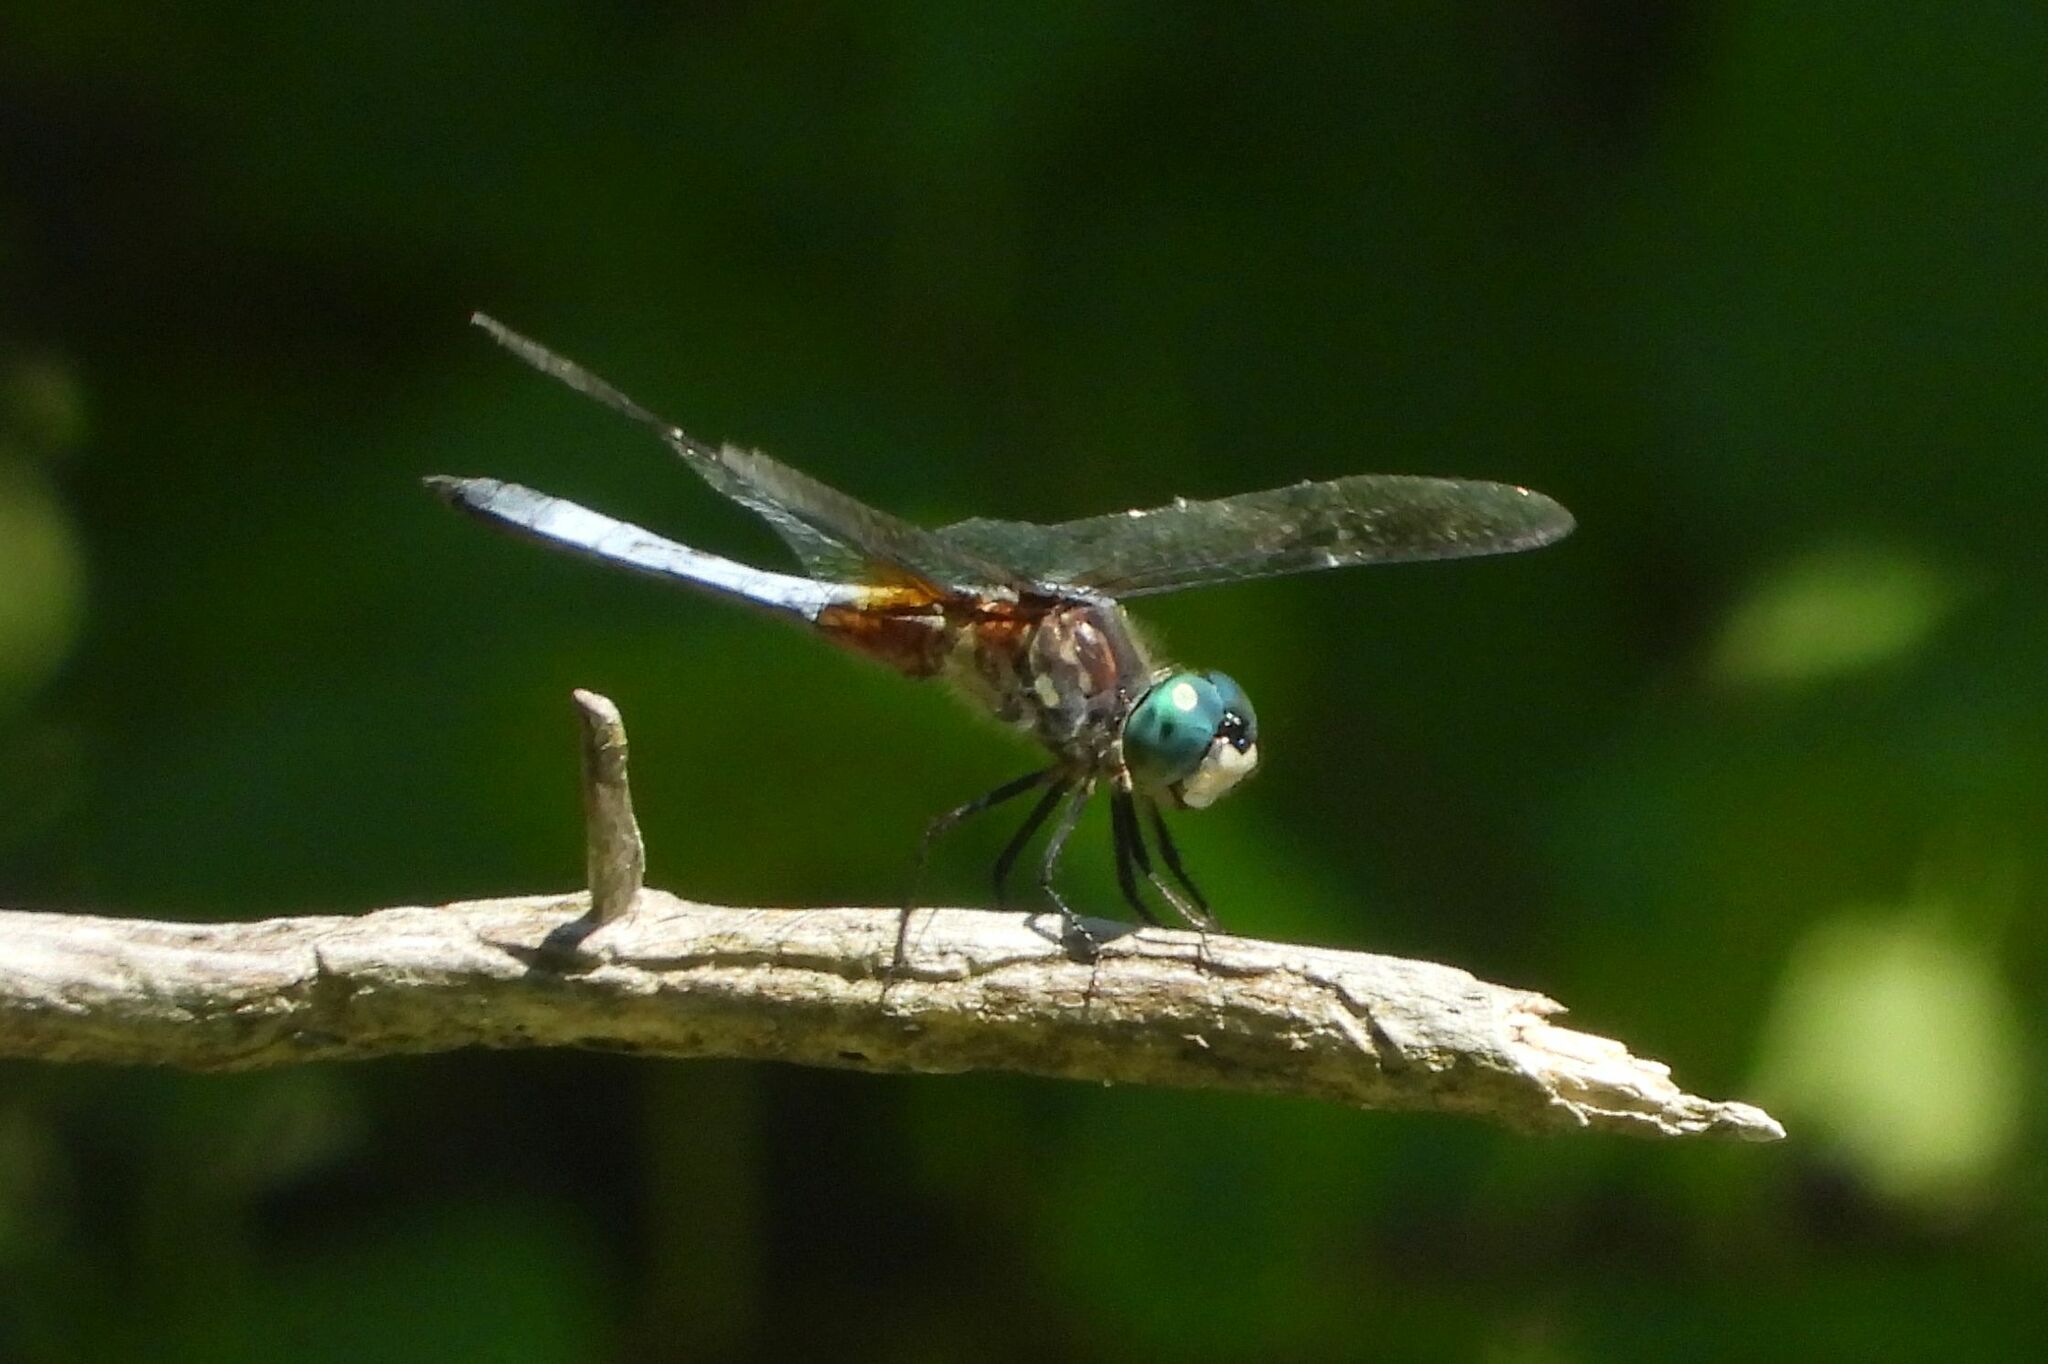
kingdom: Animalia
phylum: Arthropoda
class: Insecta
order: Odonata
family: Libellulidae
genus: Pachydiplax
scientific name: Pachydiplax longipennis
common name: Blue dasher
